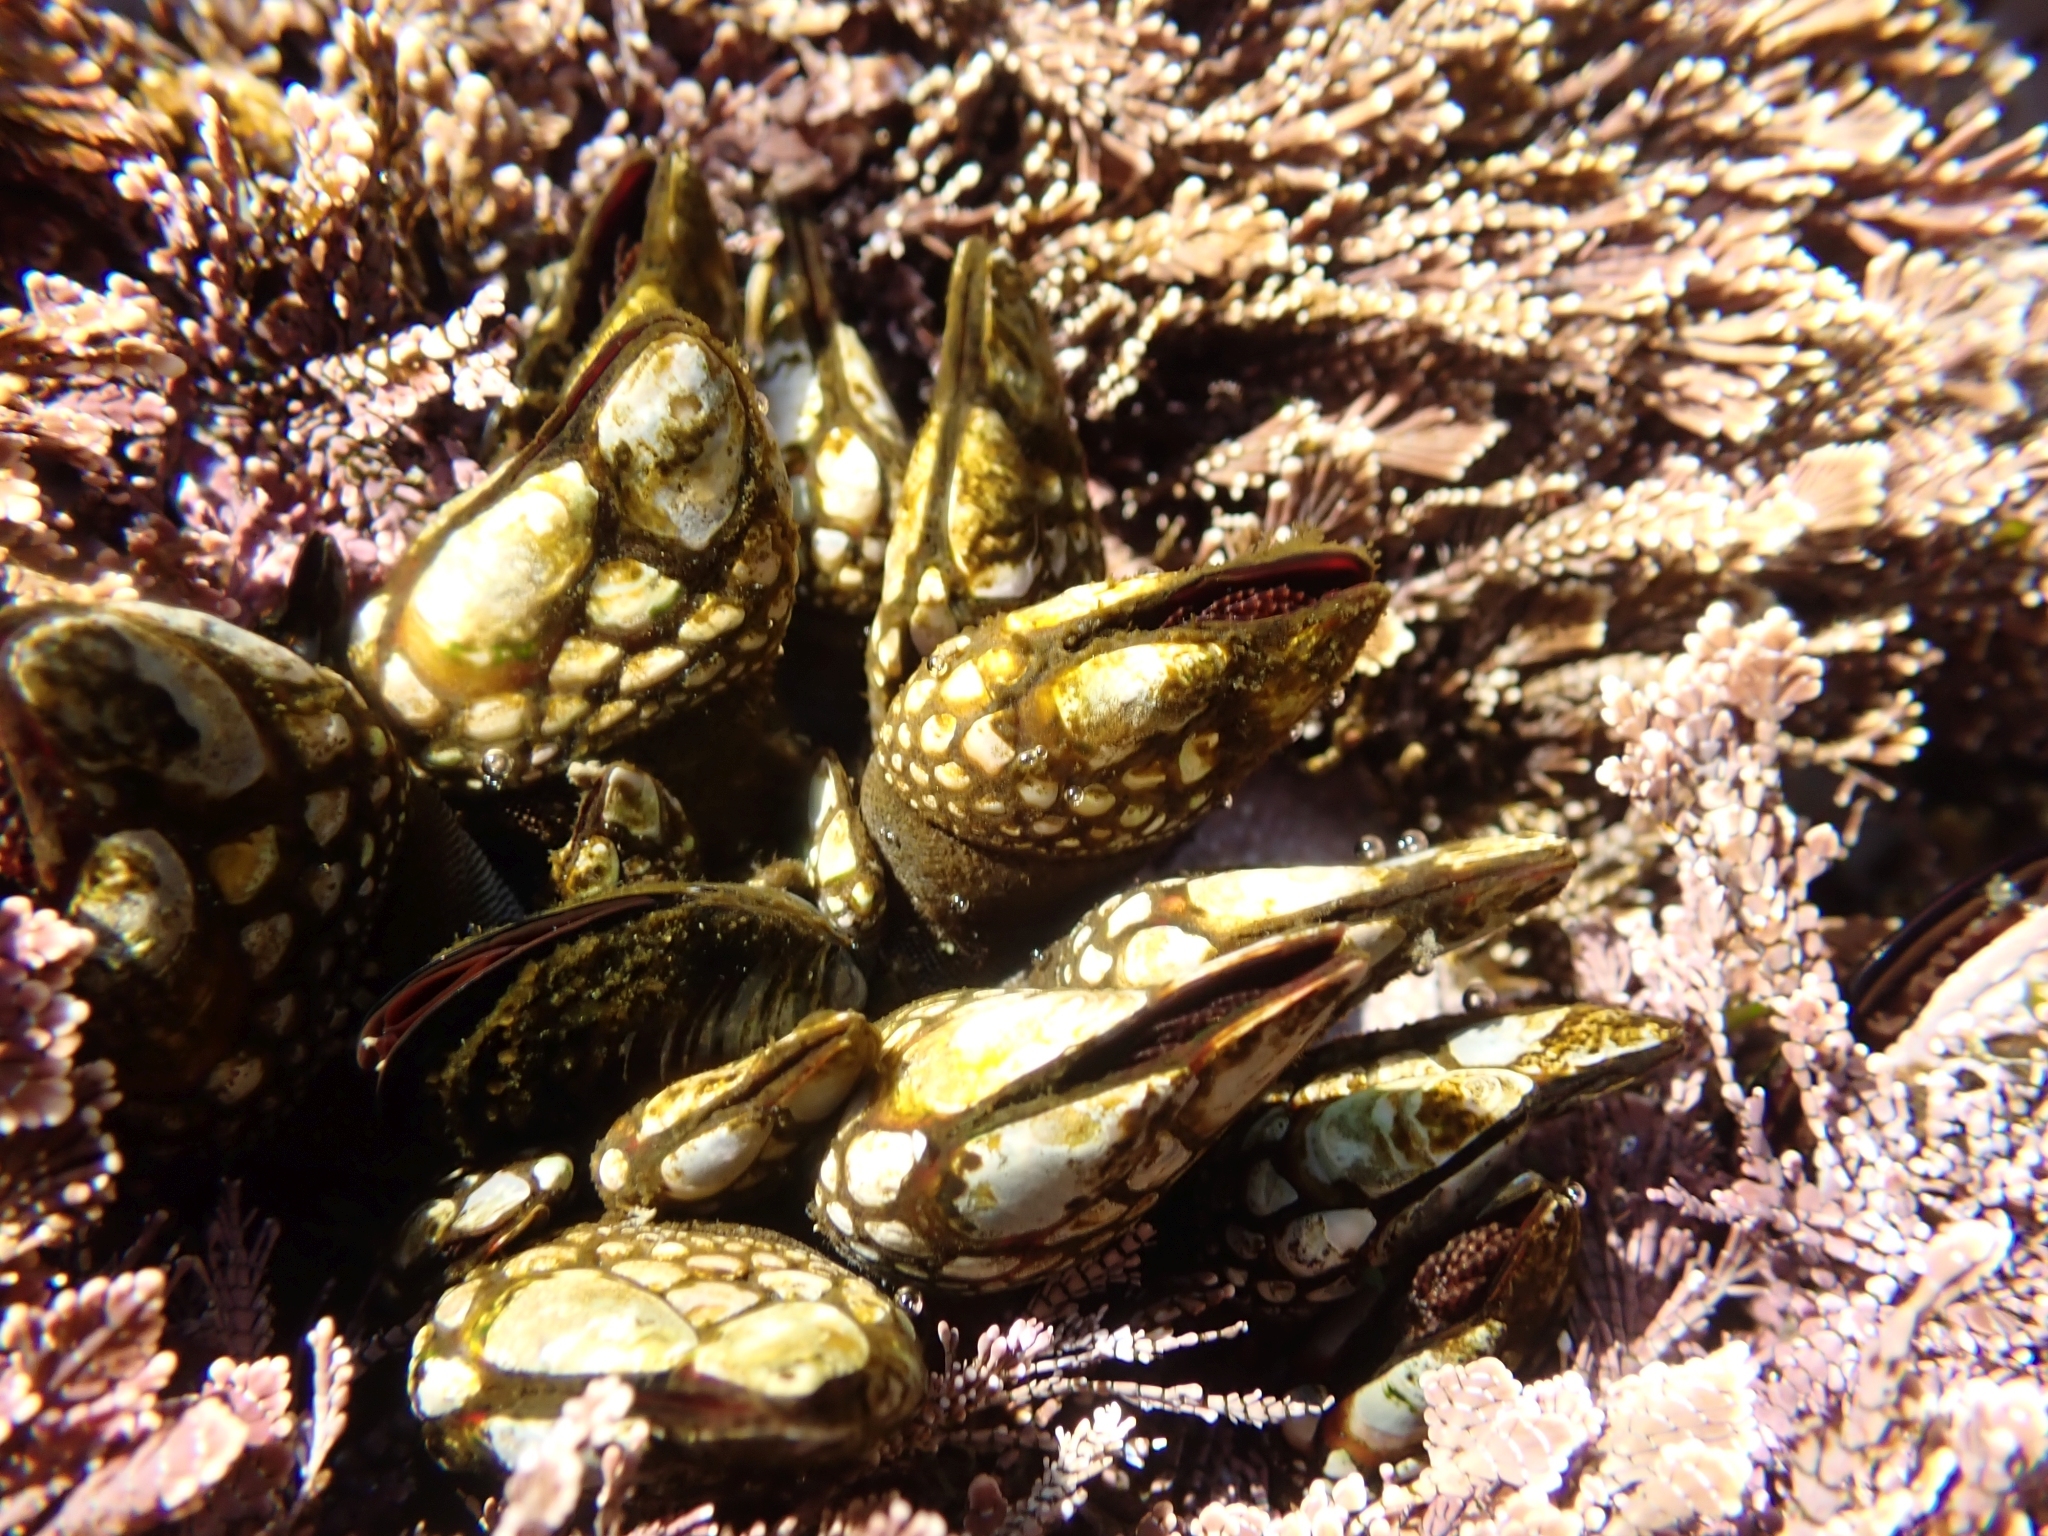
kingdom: Animalia
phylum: Arthropoda
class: Maxillopoda
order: Pedunculata
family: Pollicipedidae
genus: Pollicipes
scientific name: Pollicipes polymerus
